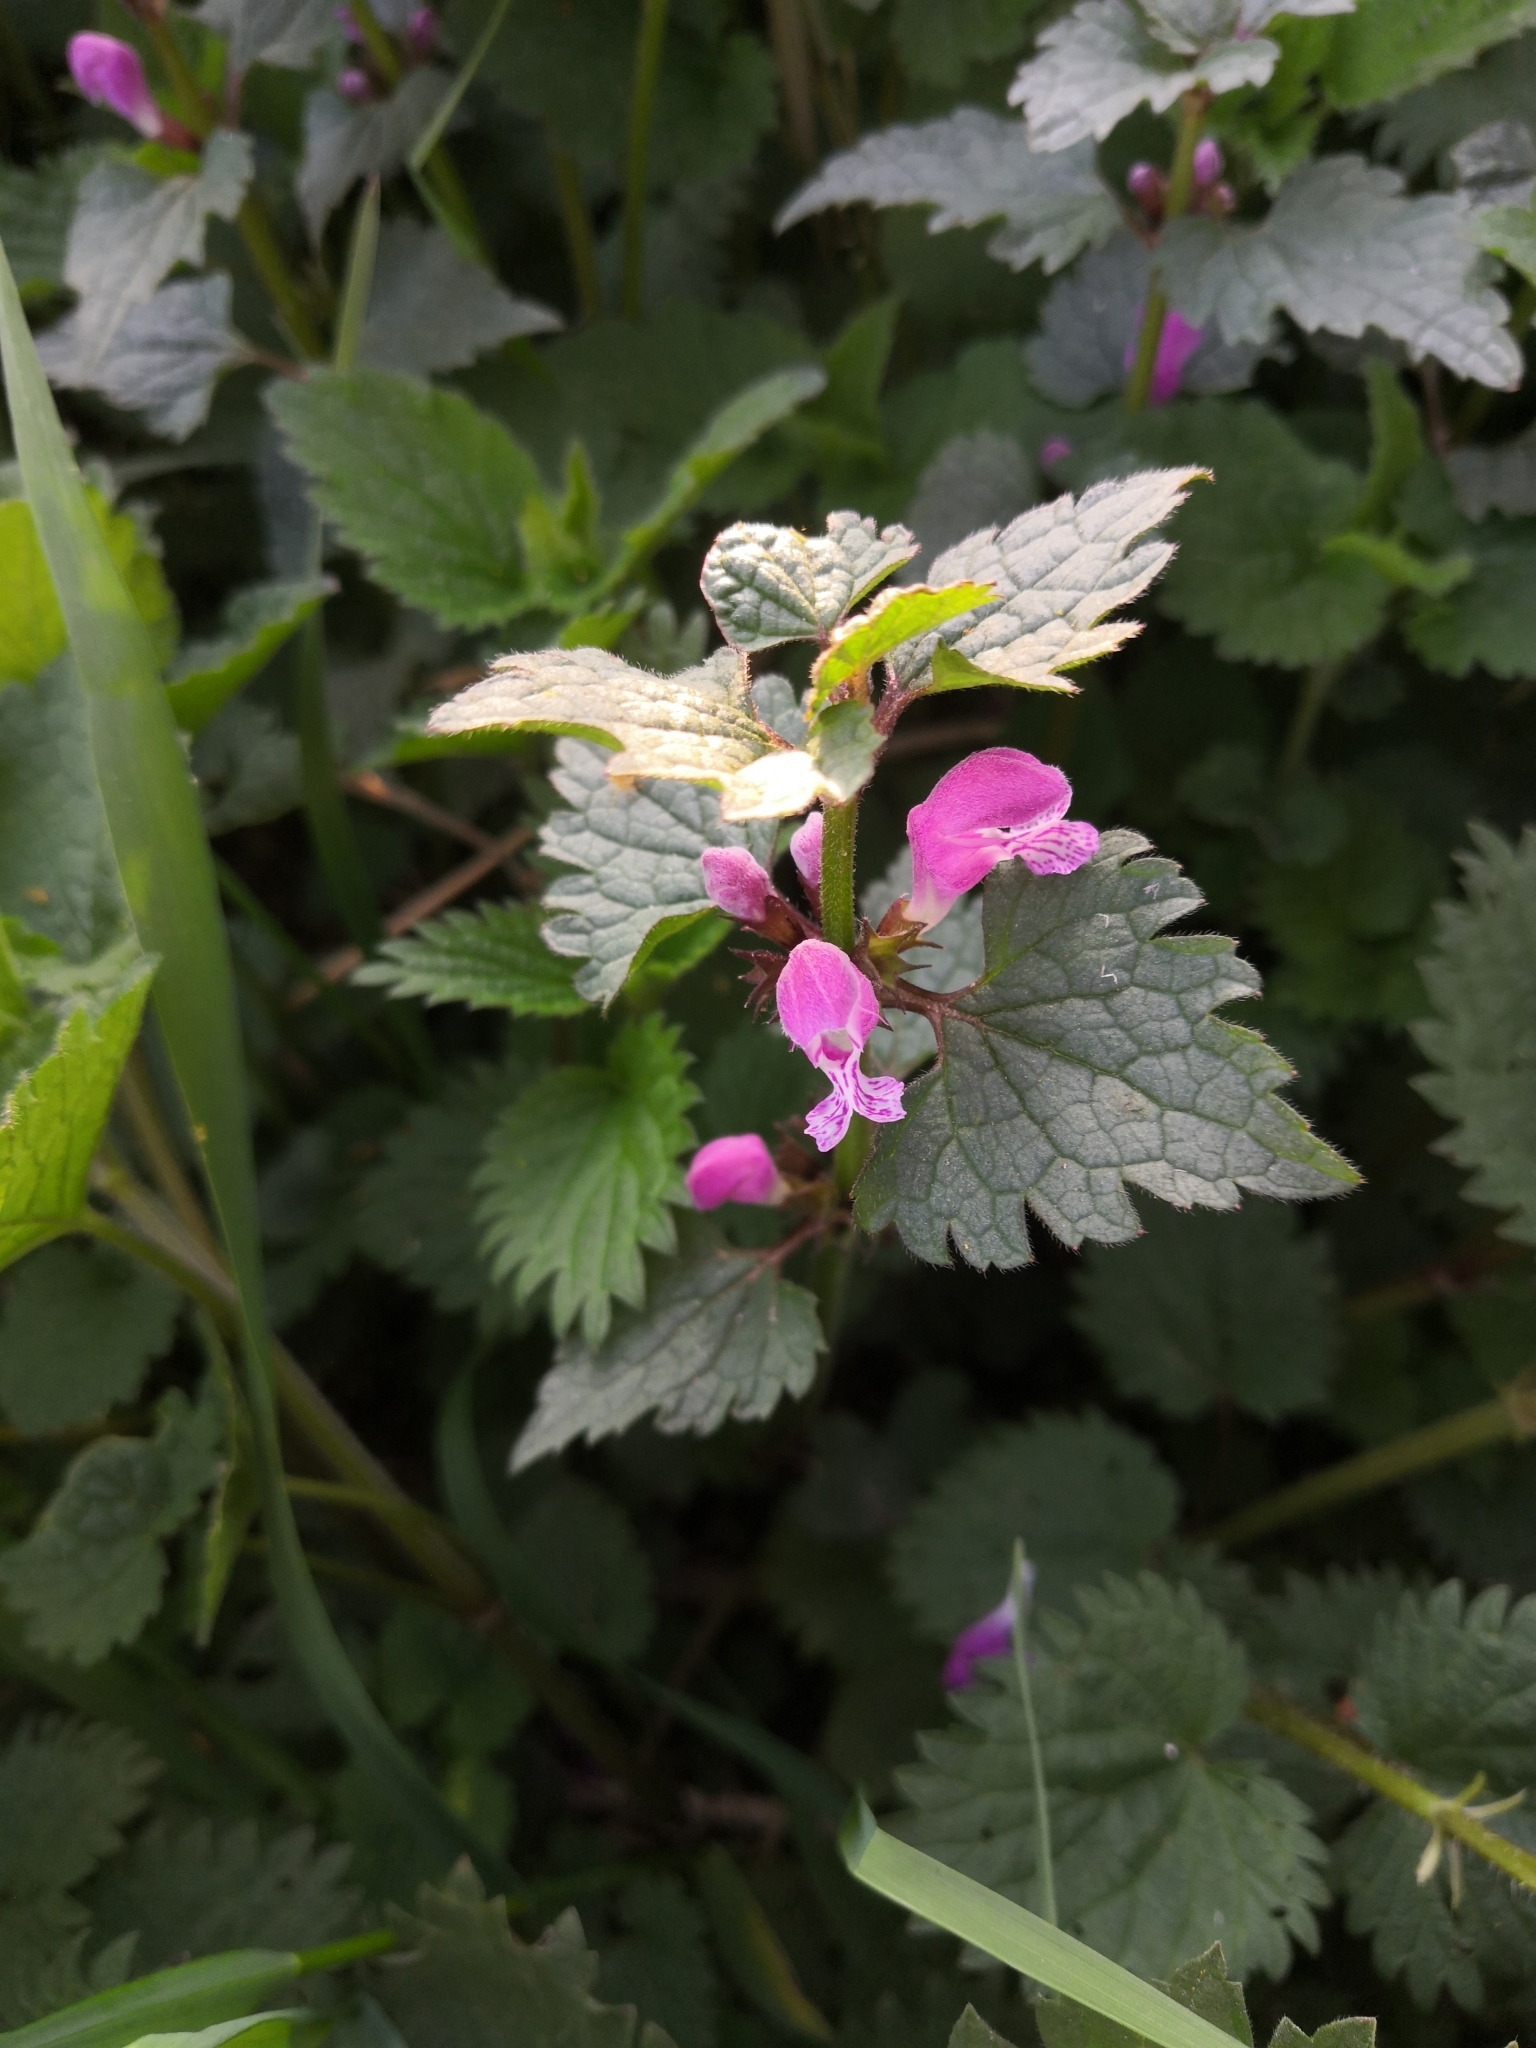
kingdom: Plantae
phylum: Tracheophyta
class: Magnoliopsida
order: Lamiales
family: Lamiaceae
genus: Lamium
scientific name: Lamium maculatum
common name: Spotted dead-nettle
